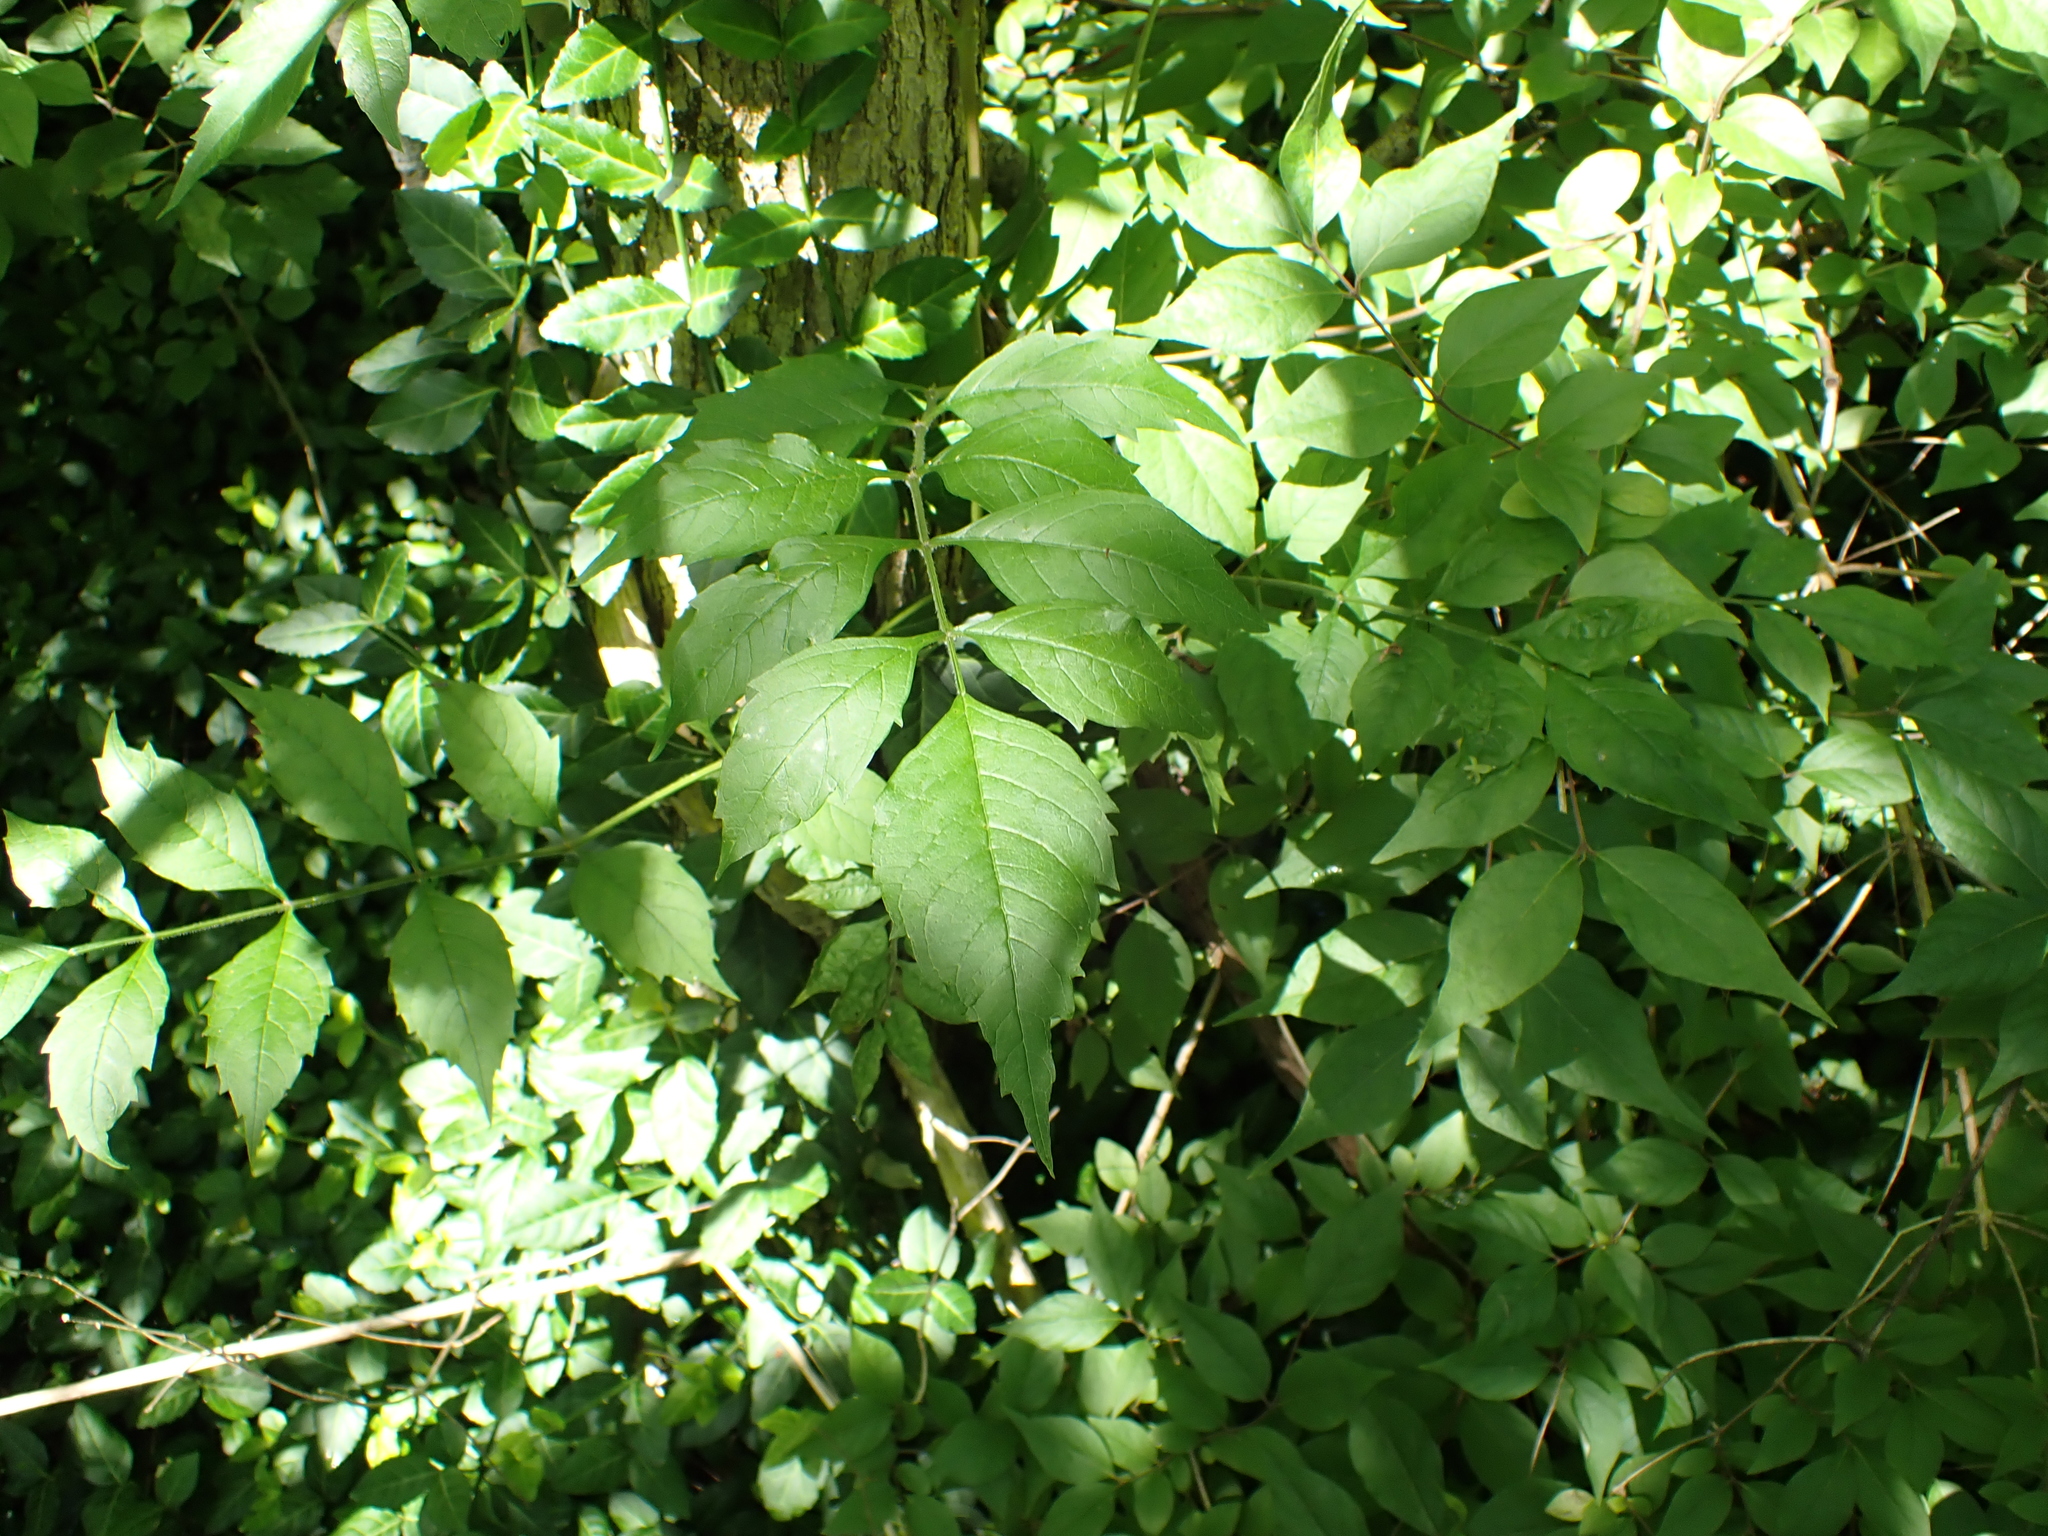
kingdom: Plantae
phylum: Tracheophyta
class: Magnoliopsida
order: Lamiales
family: Bignoniaceae
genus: Campsis
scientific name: Campsis radicans
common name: Trumpet-creeper
